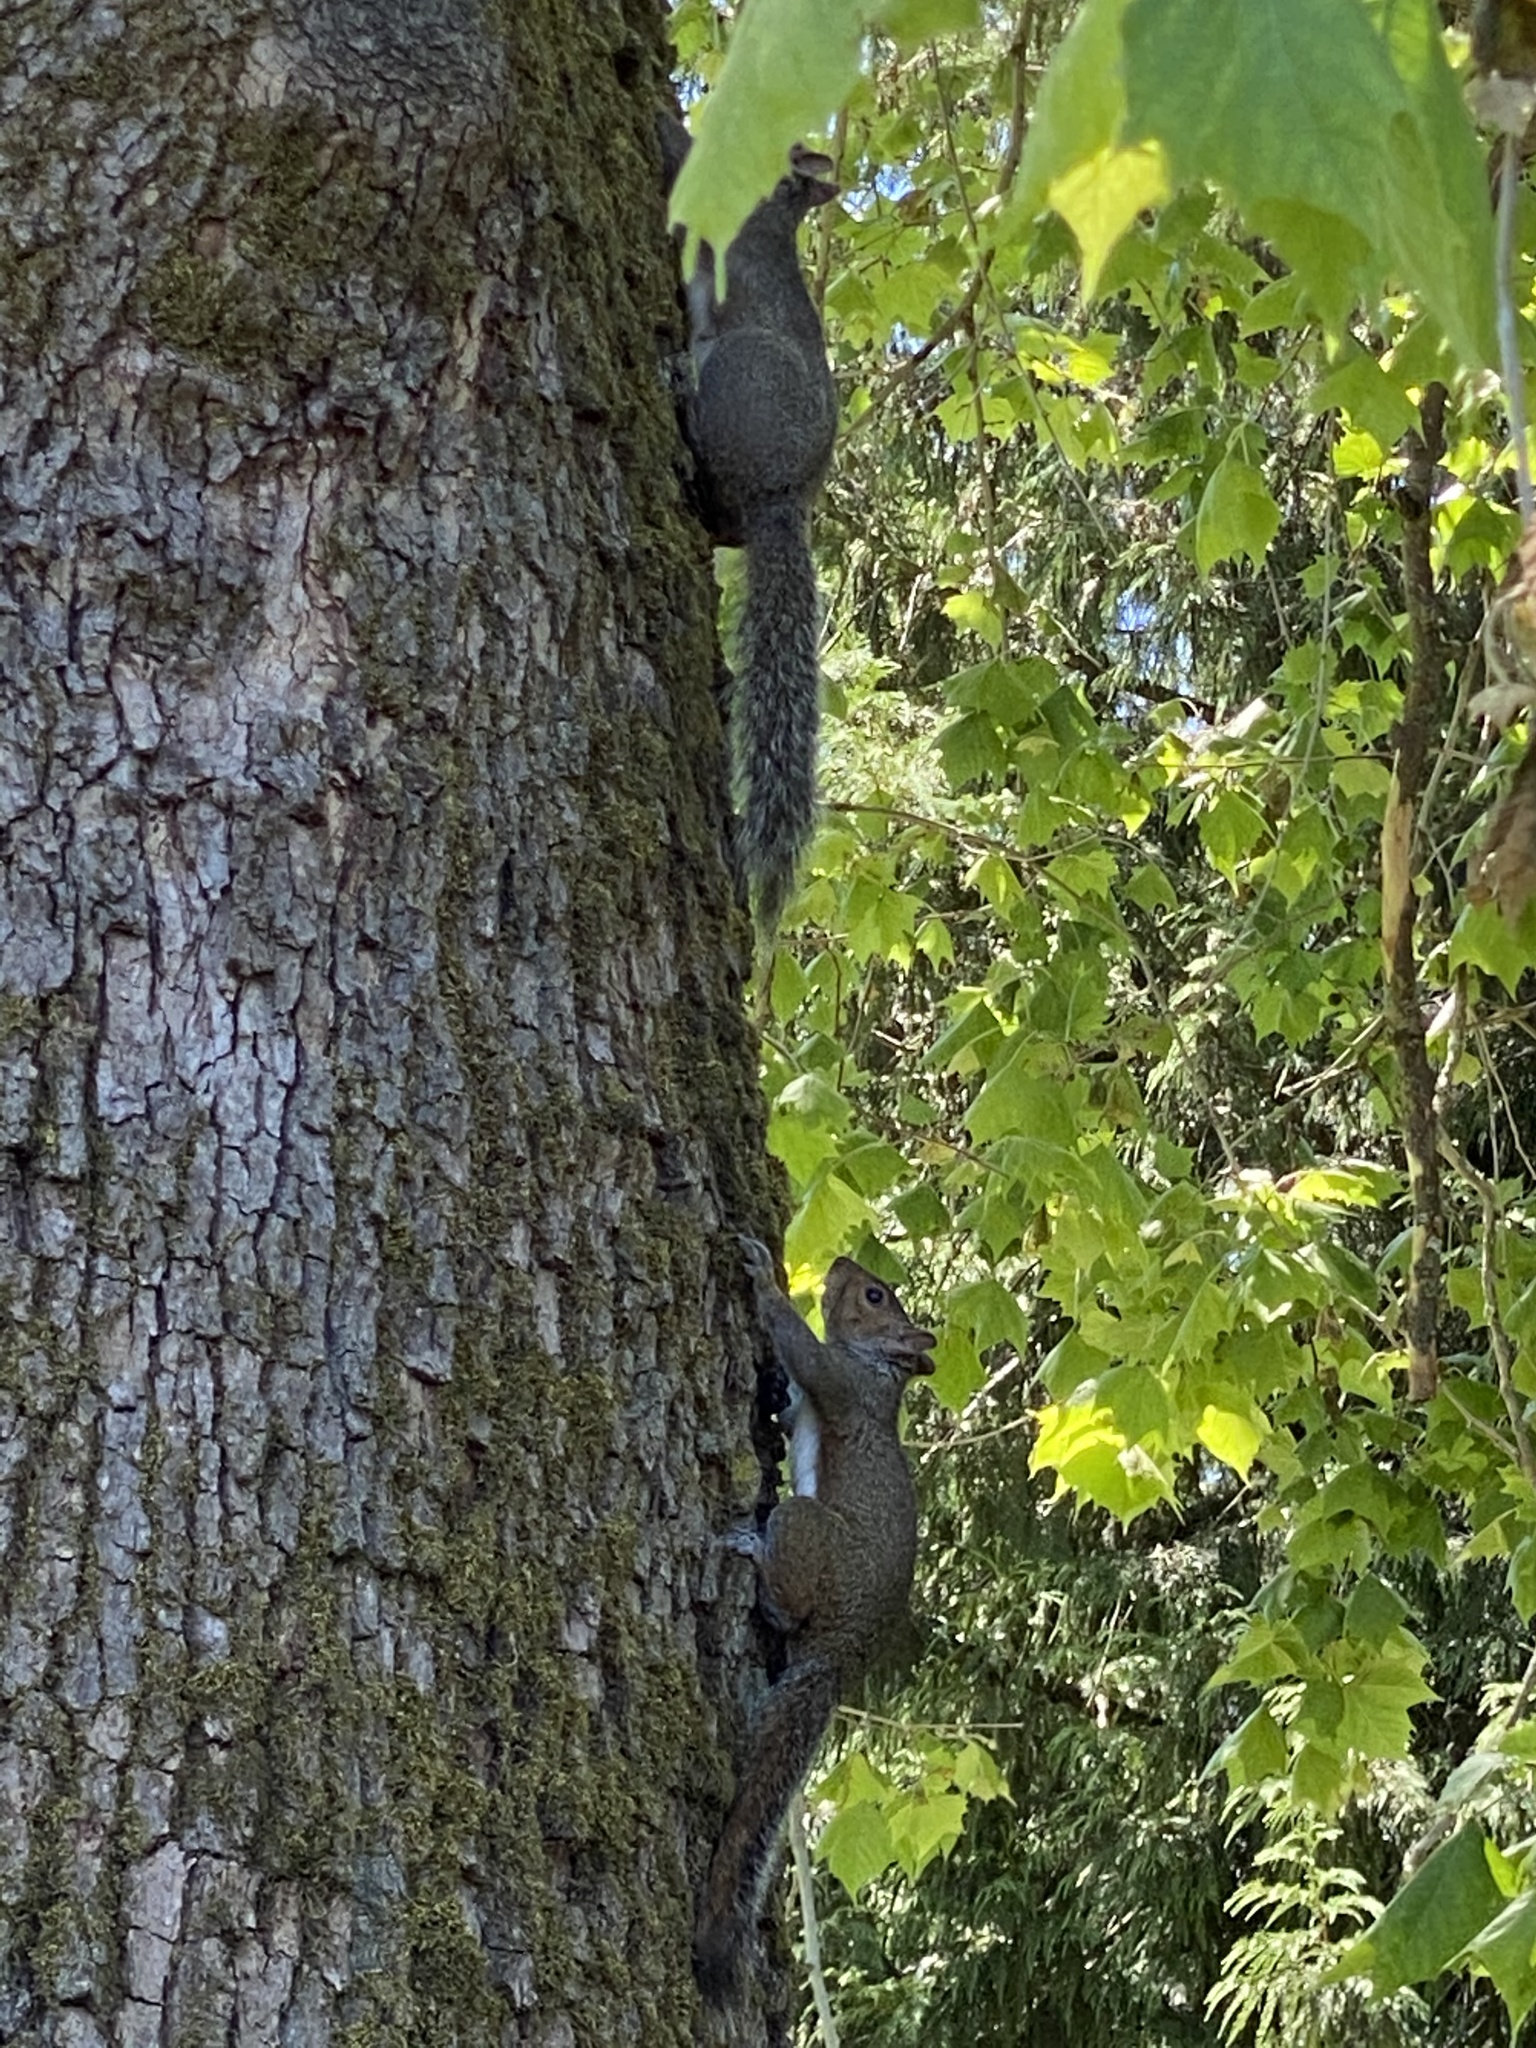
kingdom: Animalia
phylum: Chordata
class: Mammalia
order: Rodentia
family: Sciuridae
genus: Sciurus
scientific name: Sciurus carolinensis
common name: Eastern gray squirrel
